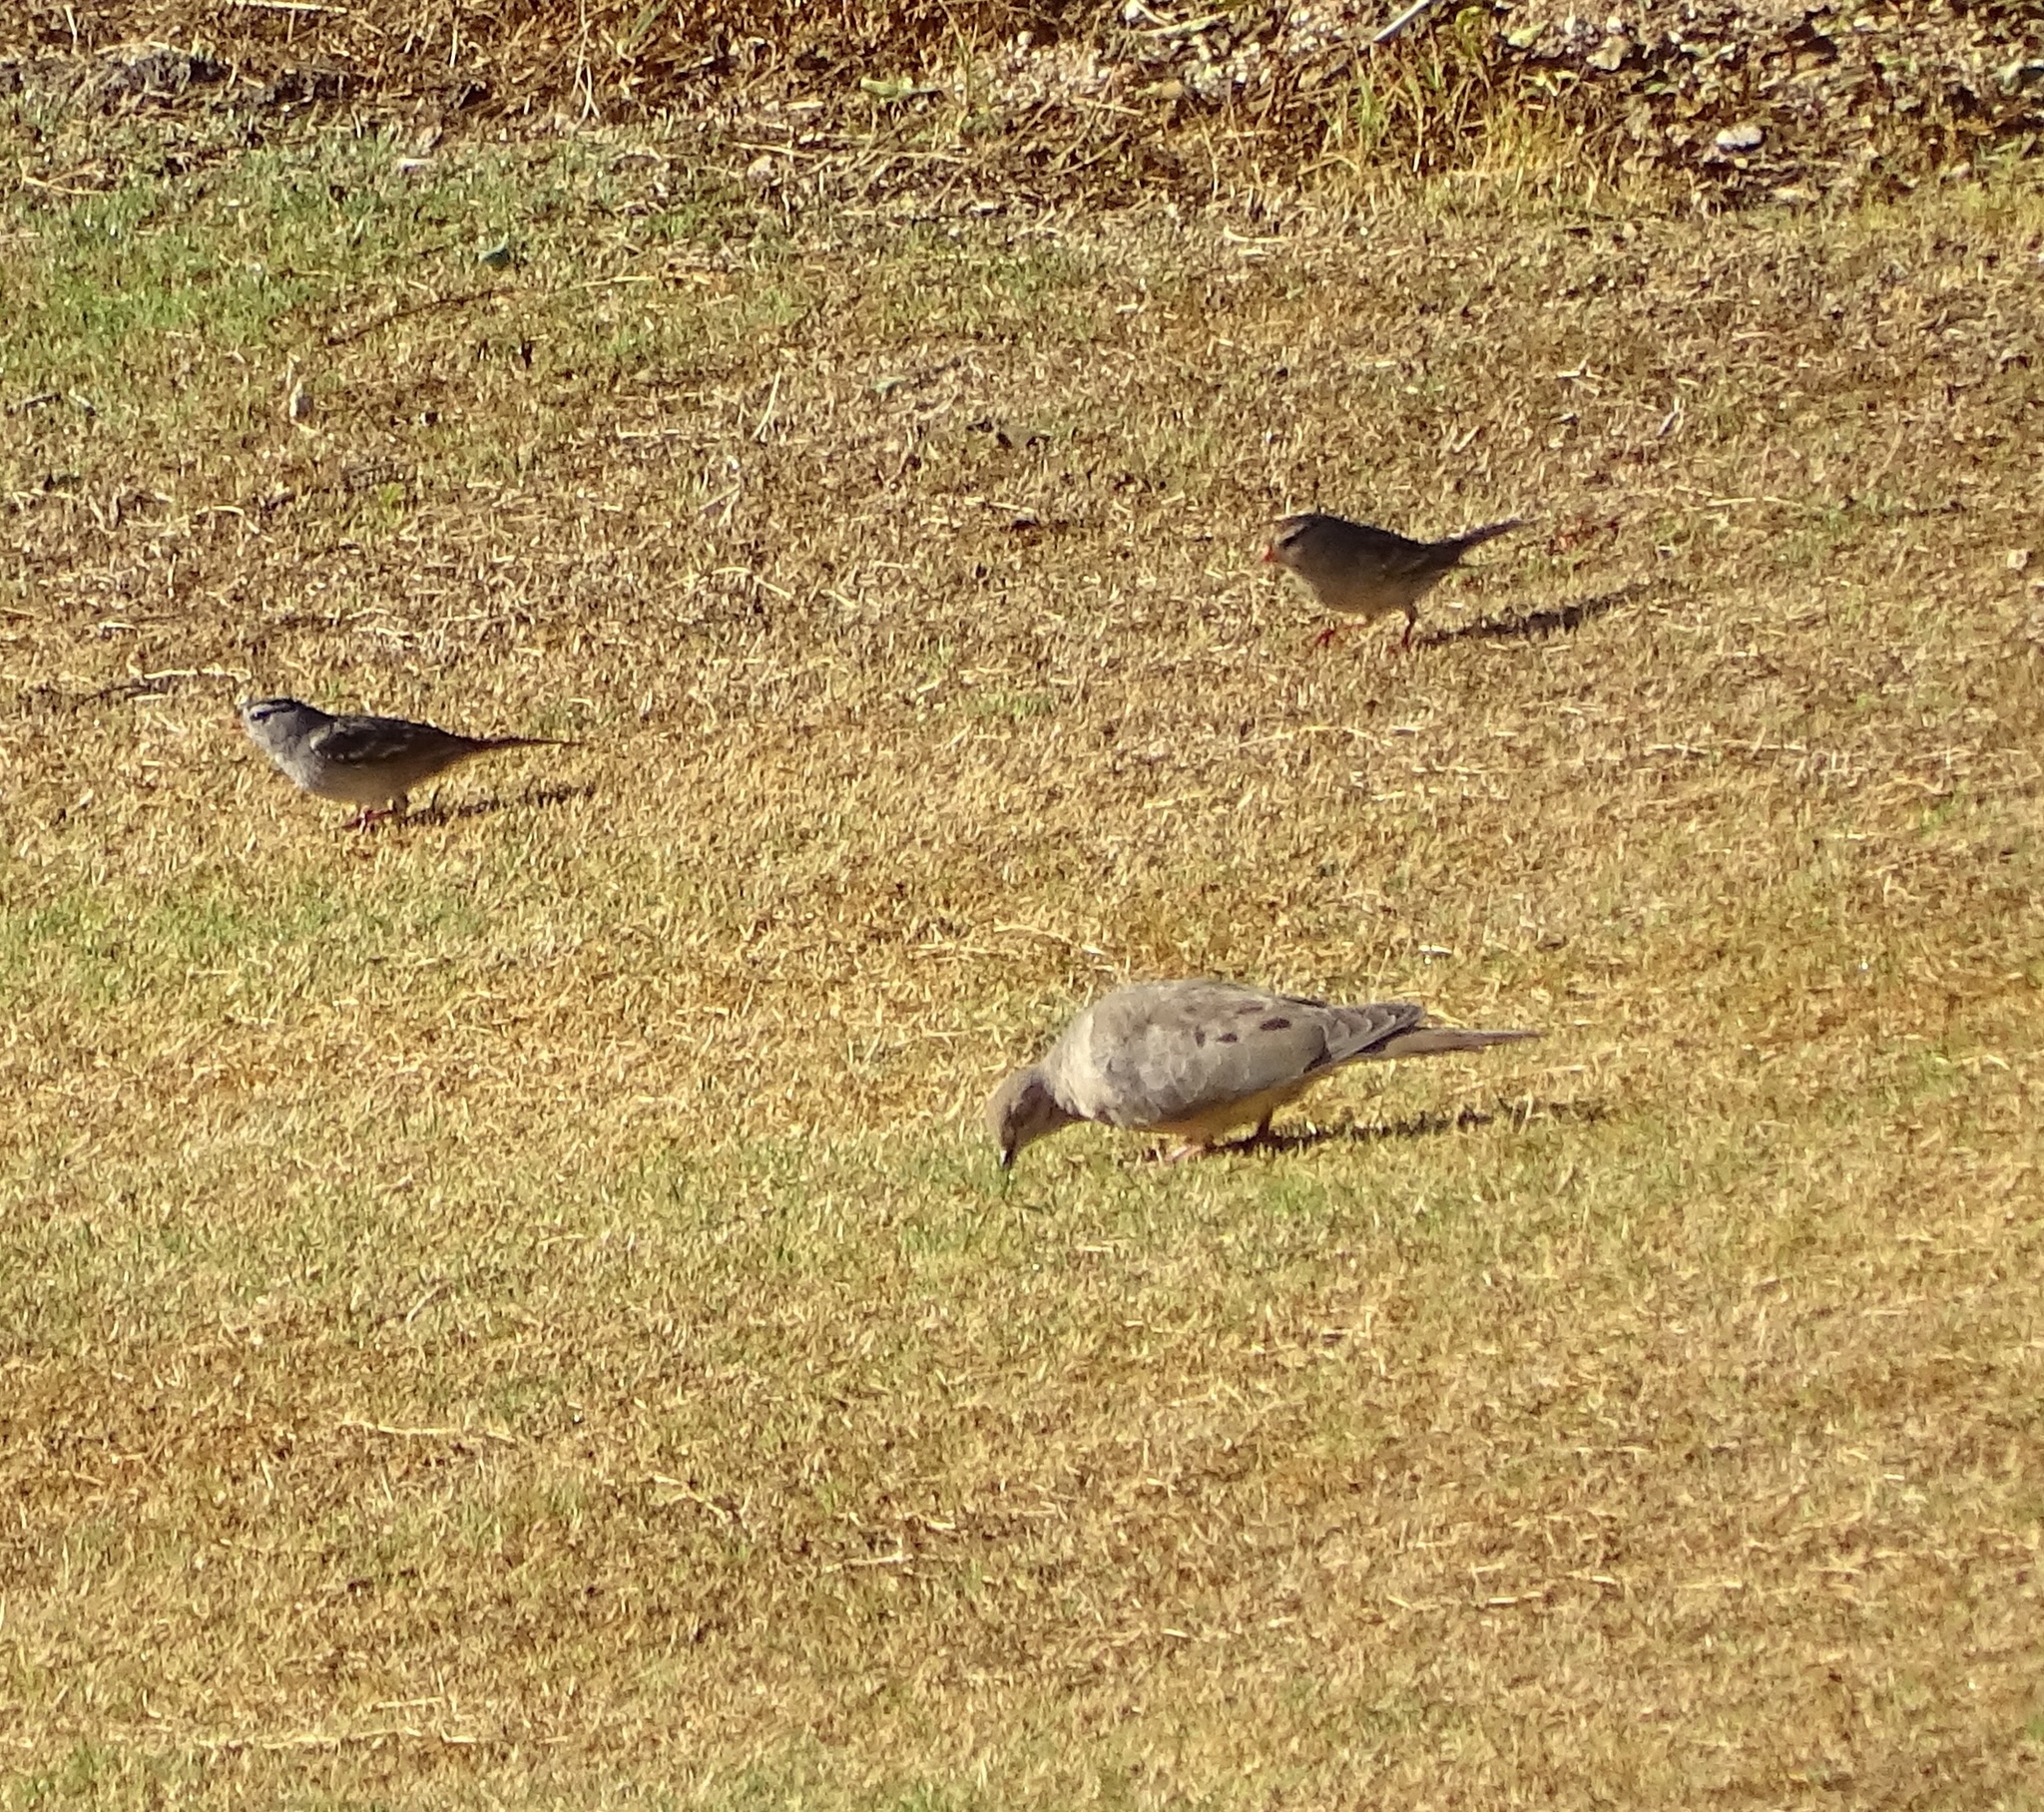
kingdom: Animalia
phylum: Chordata
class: Aves
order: Columbiformes
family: Columbidae
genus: Zenaida
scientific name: Zenaida macroura
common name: Mourning dove
